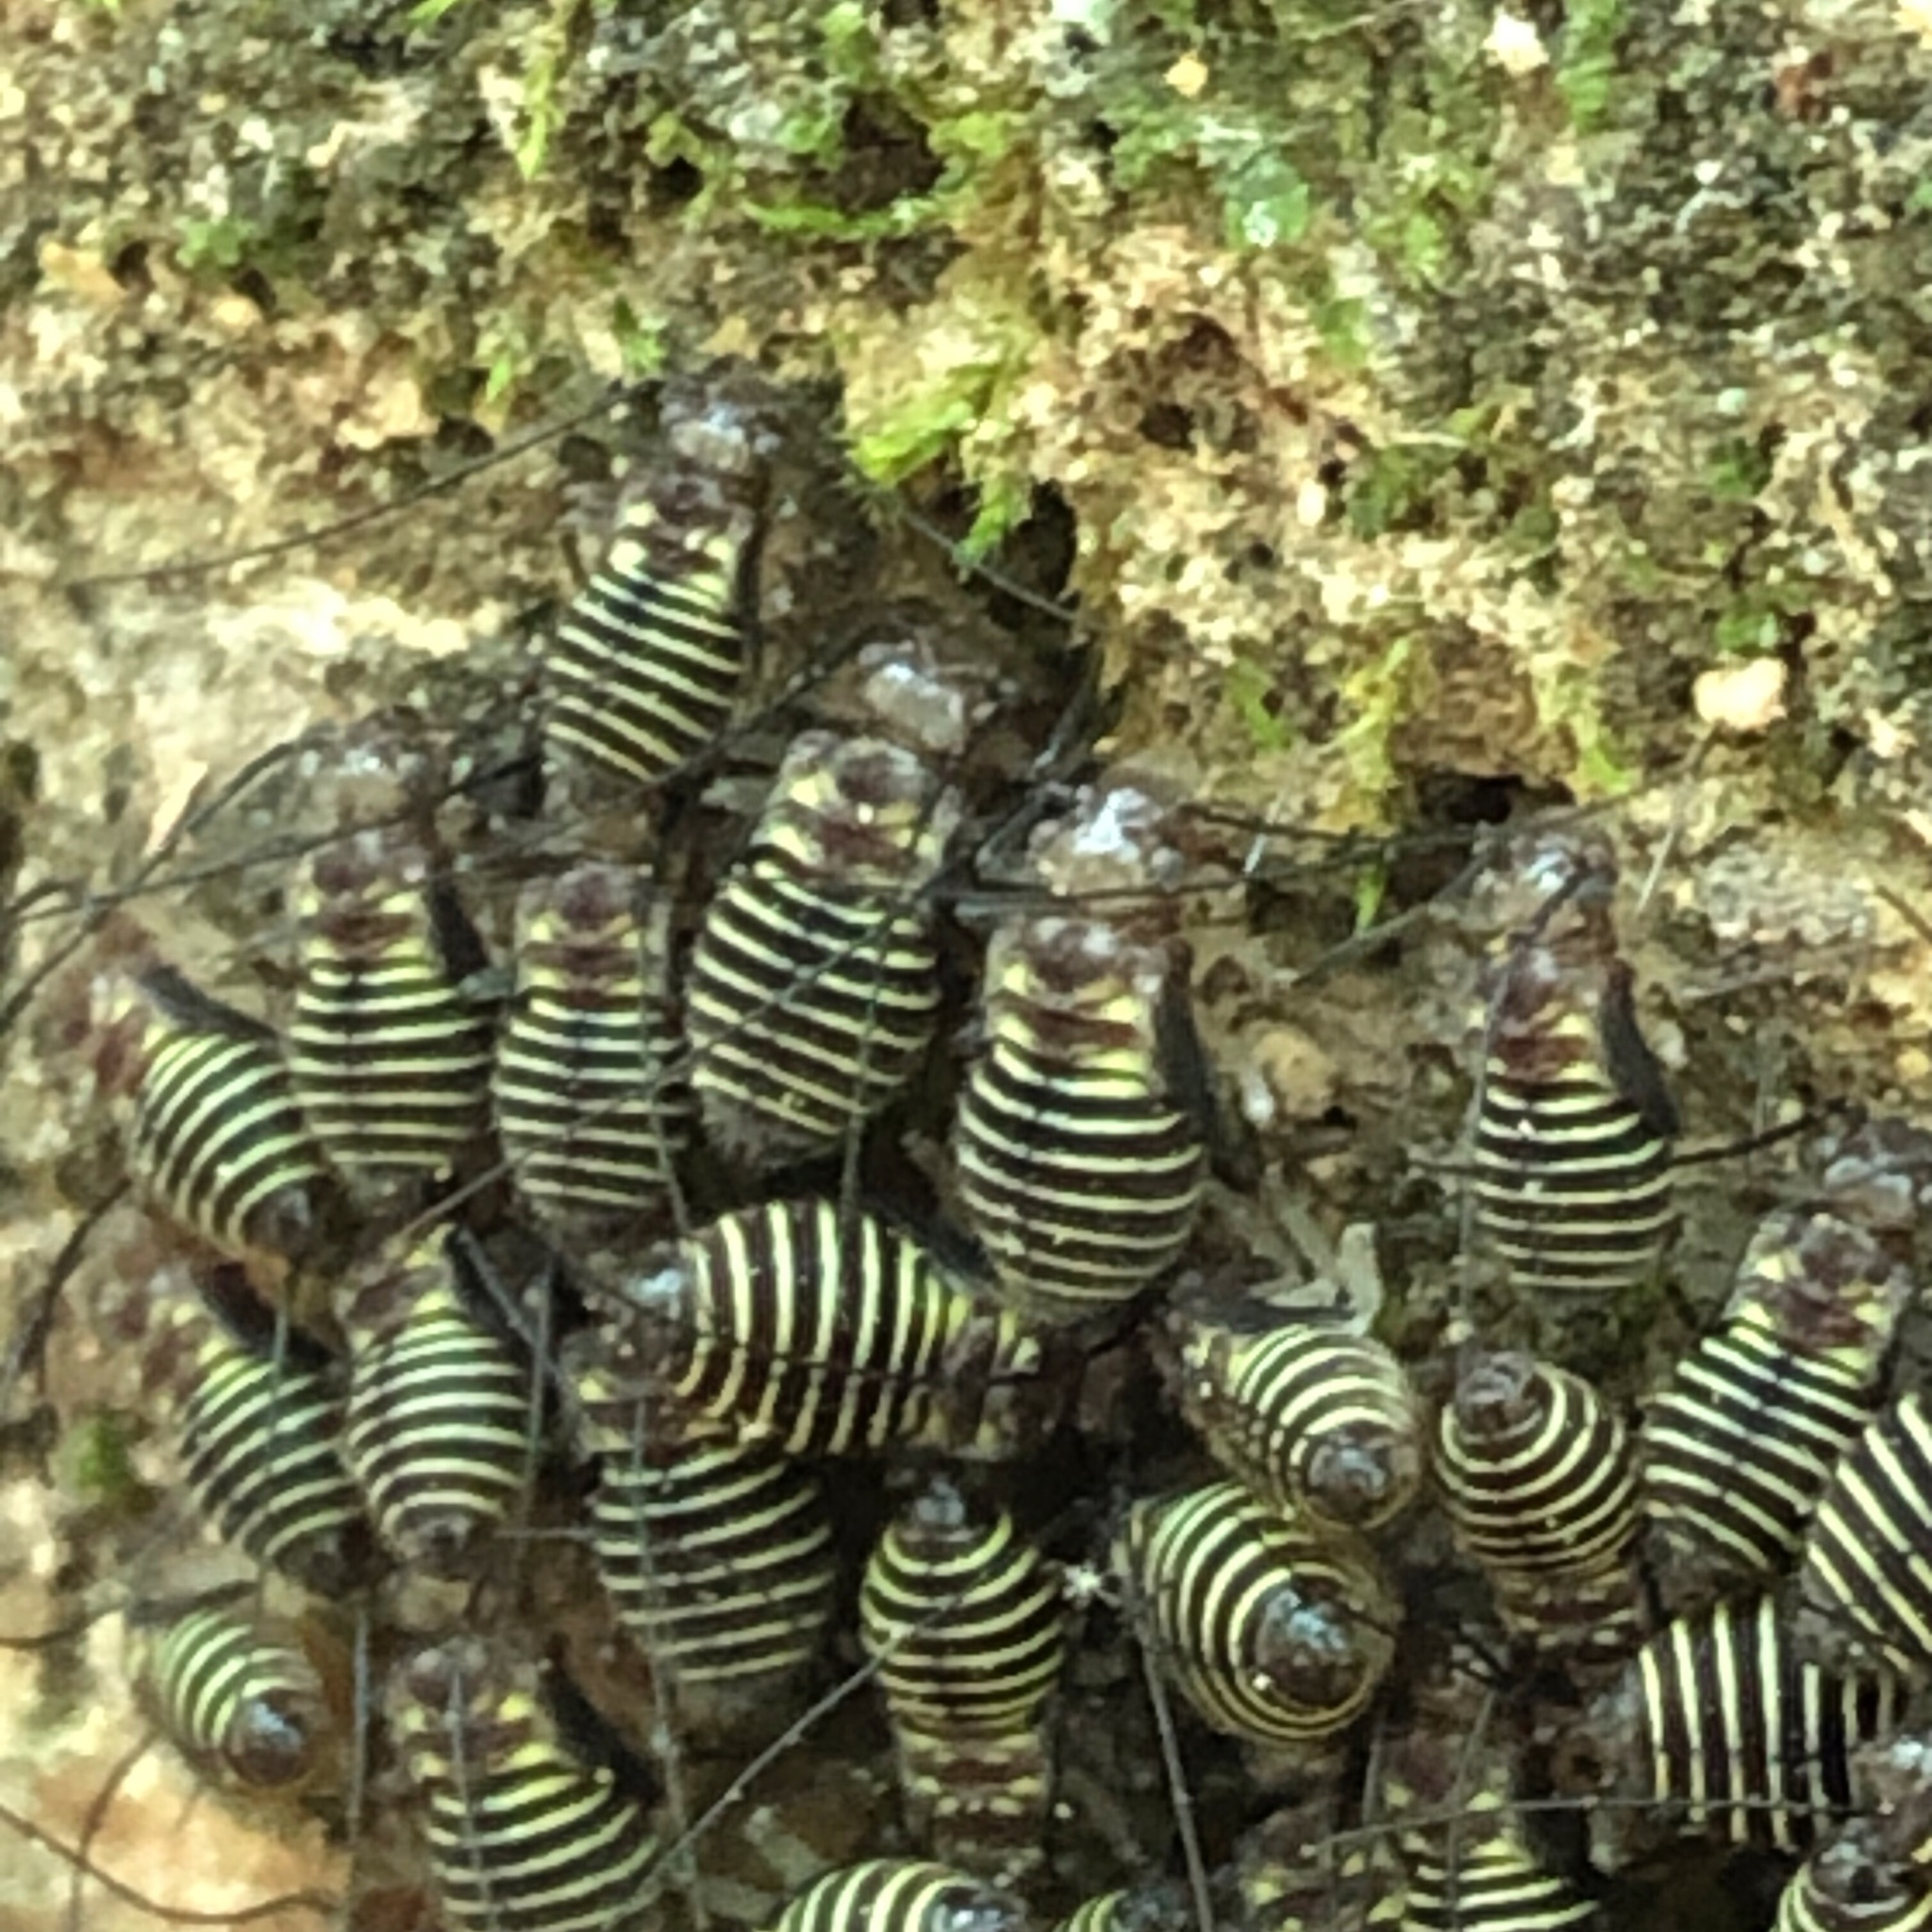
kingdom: Animalia
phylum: Arthropoda
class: Insecta
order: Psocodea
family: Psocidae
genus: Cerastipsocus
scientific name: Cerastipsocus venosus
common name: Tree cattle
